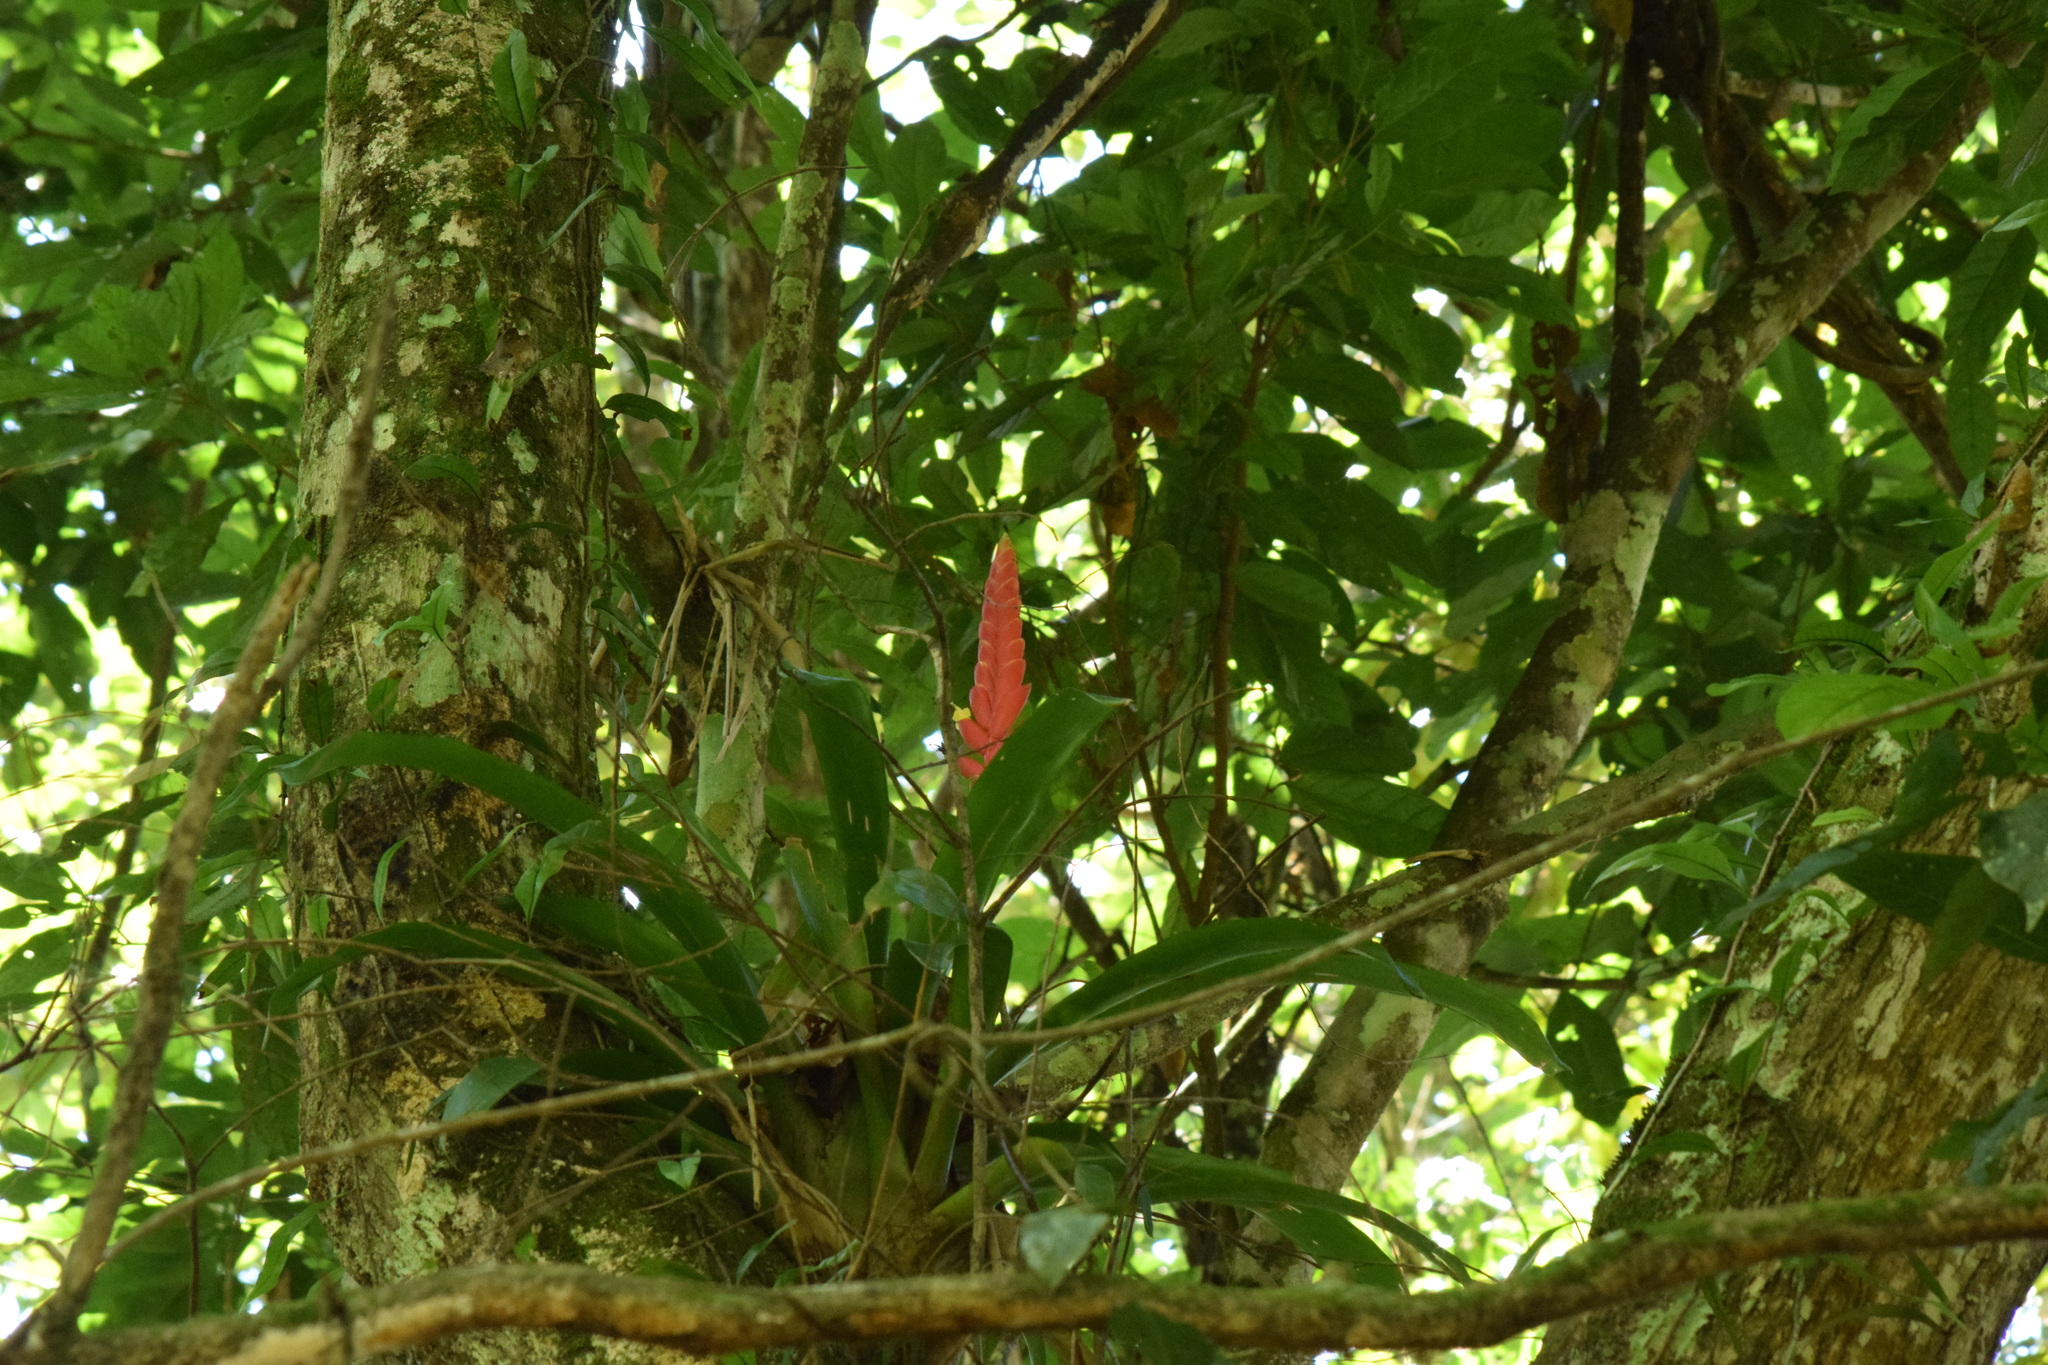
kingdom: Plantae
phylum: Tracheophyta
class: Liliopsida
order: Poales
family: Bromeliaceae
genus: Vriesea
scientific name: Vriesea ensiformis
